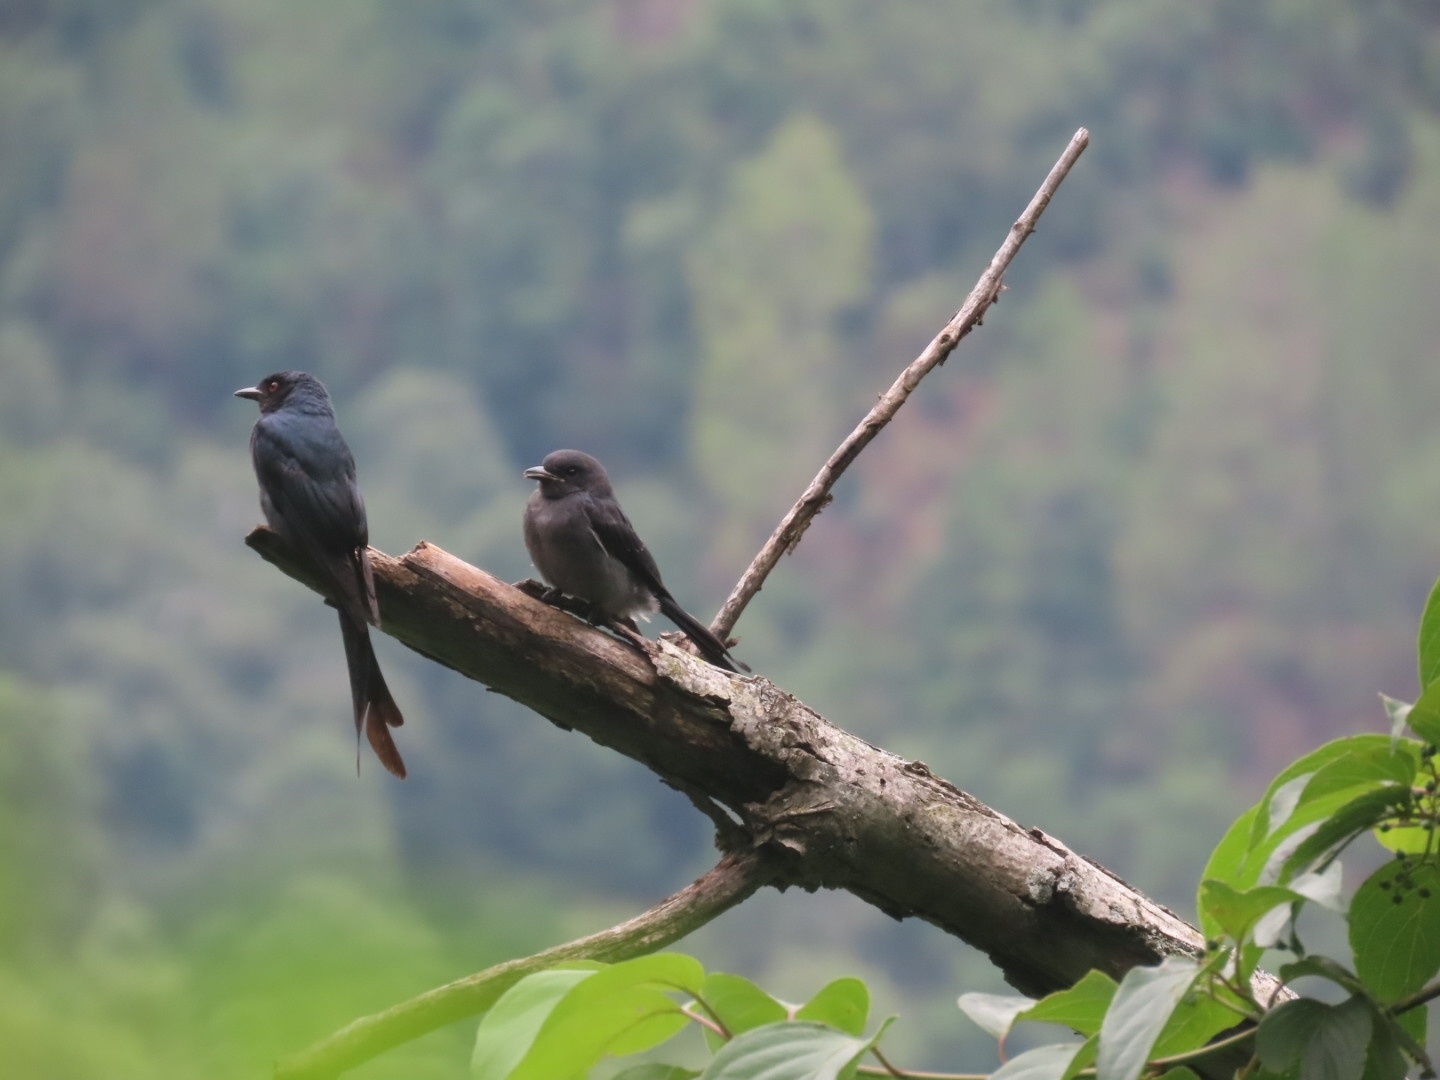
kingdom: Animalia
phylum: Chordata
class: Aves
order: Passeriformes
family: Dicruridae
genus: Dicrurus
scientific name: Dicrurus leucophaeus
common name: Ashy drongo
